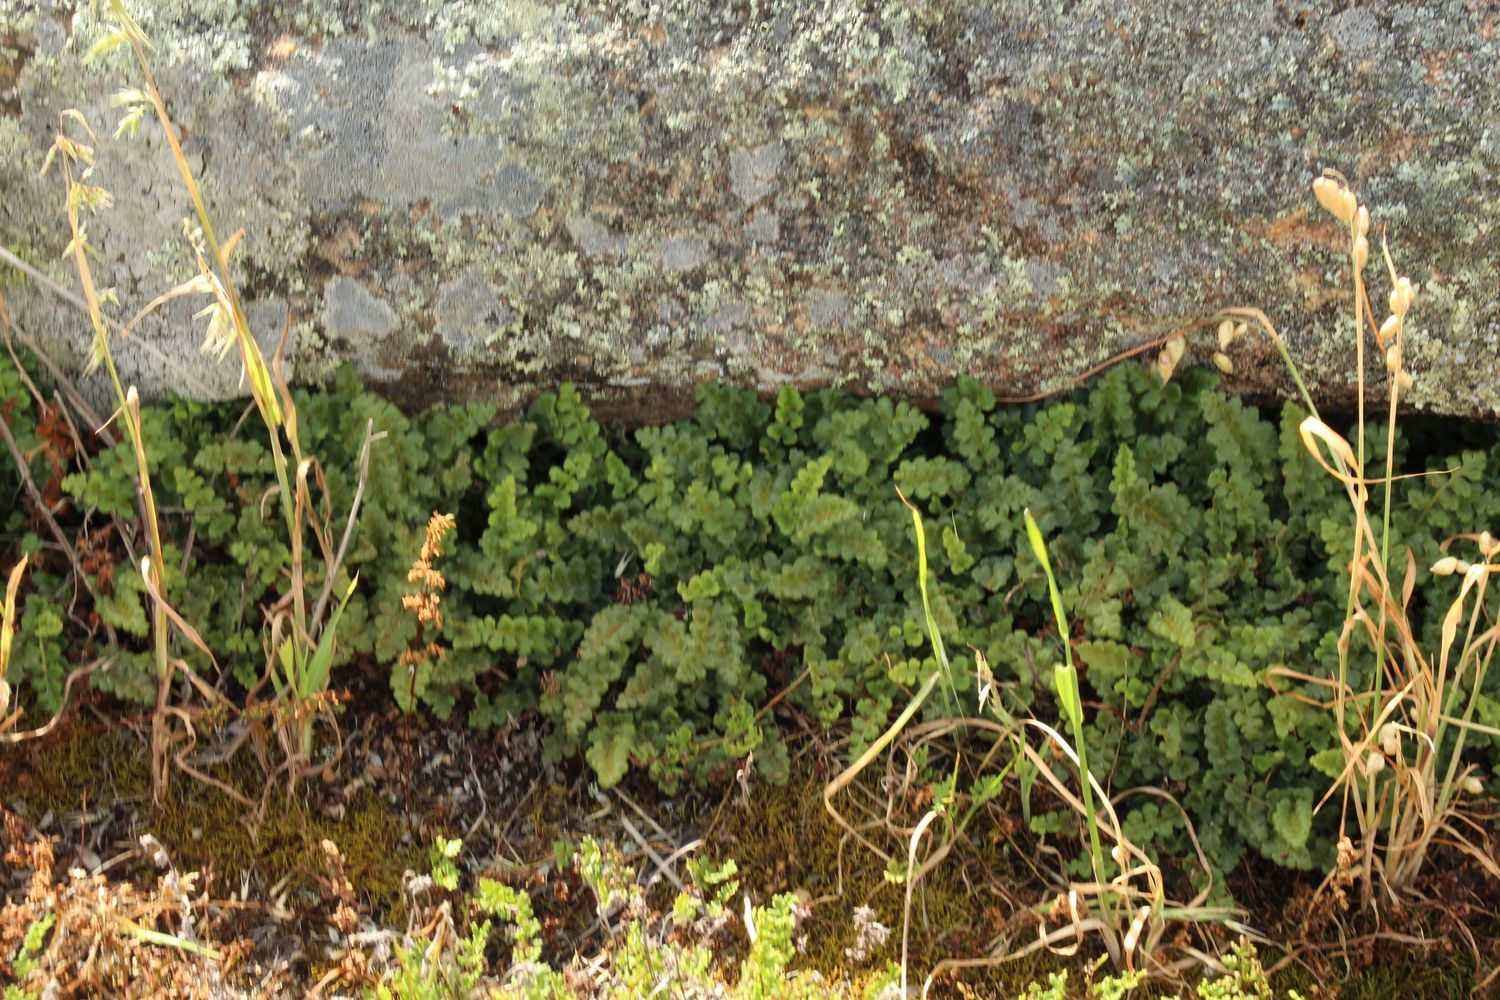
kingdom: Plantae
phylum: Tracheophyta
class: Polypodiopsida
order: Polypodiales
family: Aspleniaceae
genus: Asplenium
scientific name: Asplenium subglandulosum
